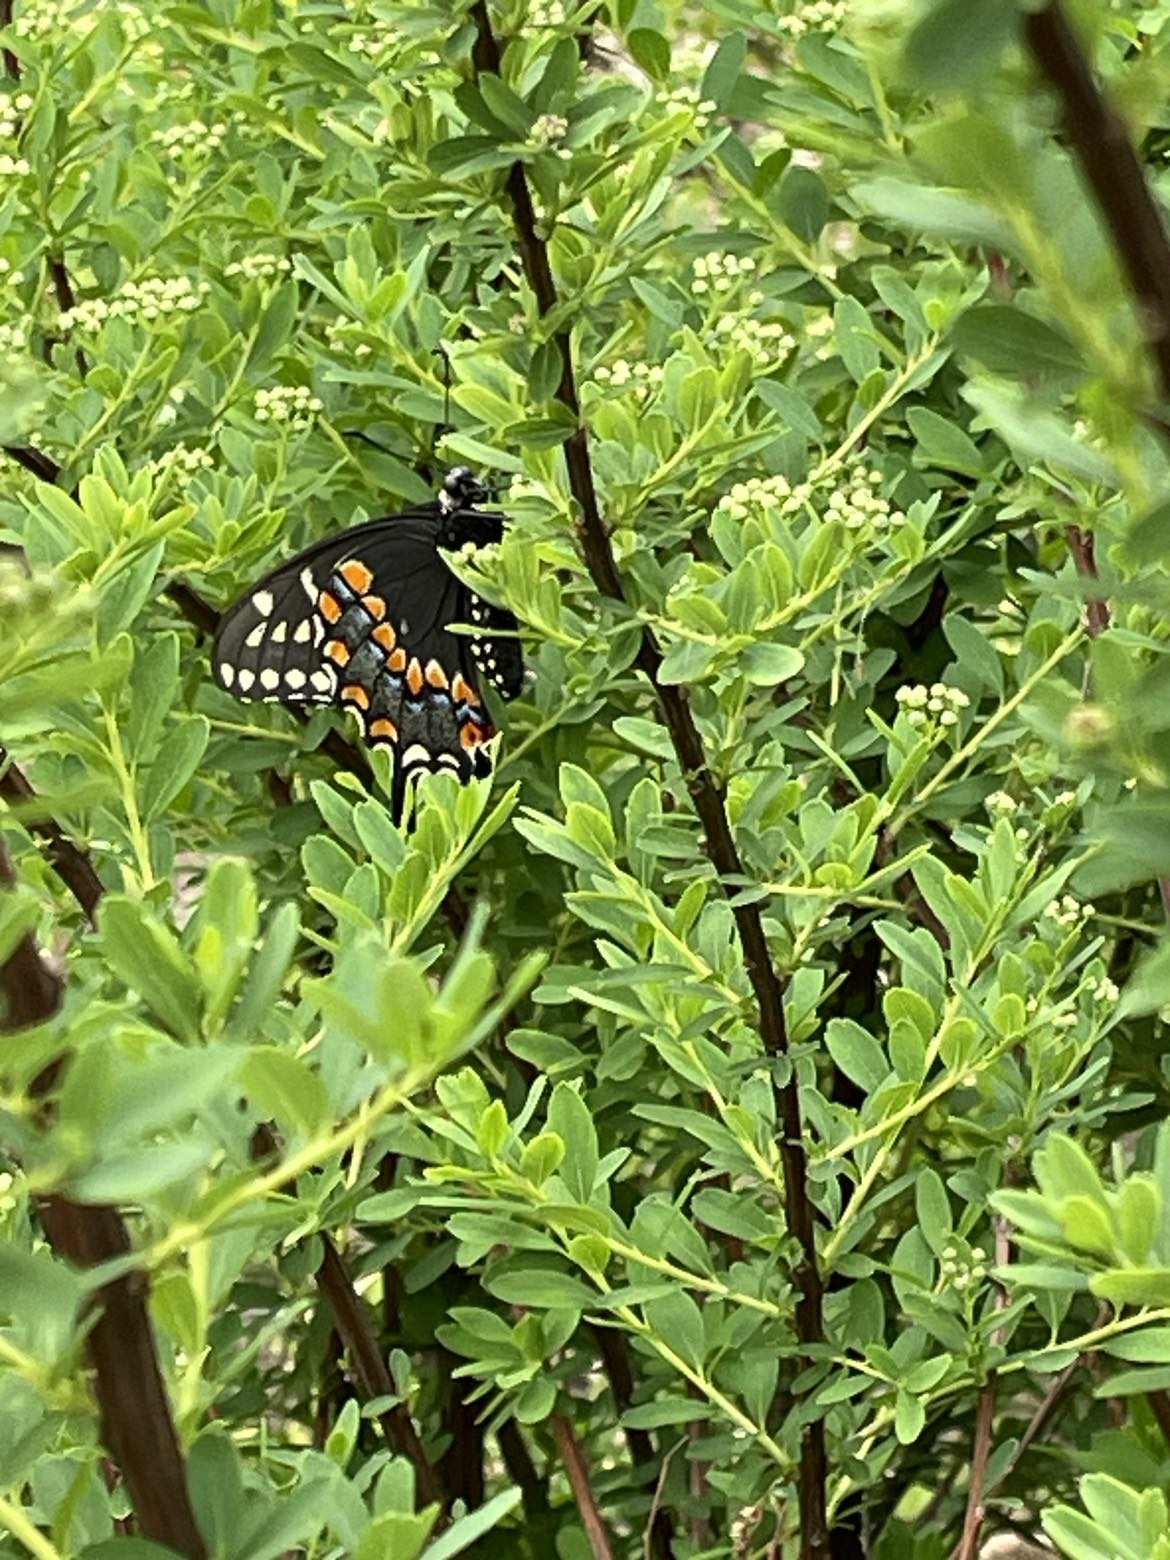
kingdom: Animalia
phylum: Arthropoda
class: Insecta
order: Lepidoptera
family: Papilionidae
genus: Papilio
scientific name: Papilio polyxenes
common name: Black swallowtail
